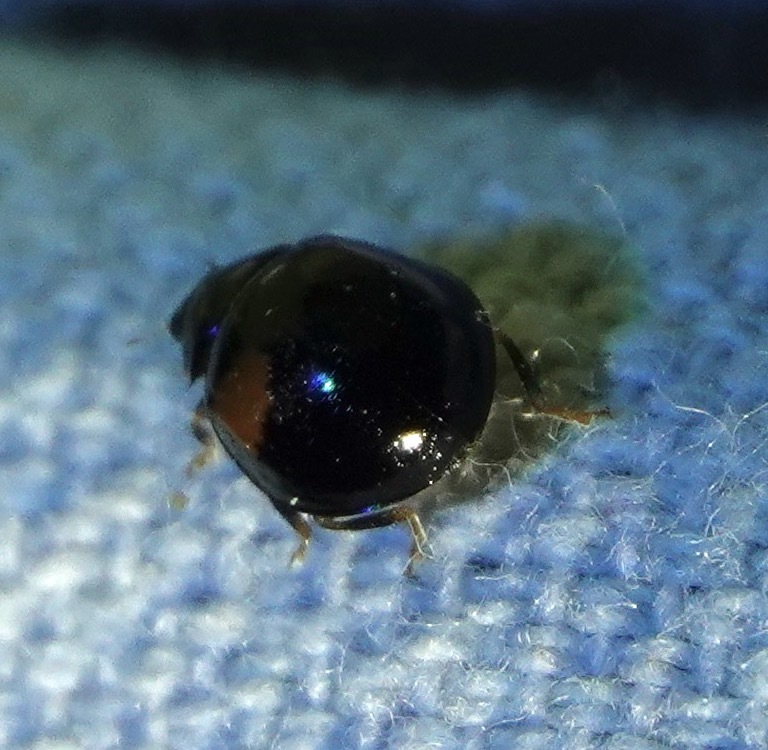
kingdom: Animalia
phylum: Arthropoda
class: Insecta
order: Coleoptera
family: Coccinellidae
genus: Harmonia
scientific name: Harmonia axyridis
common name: Harlequin ladybird
